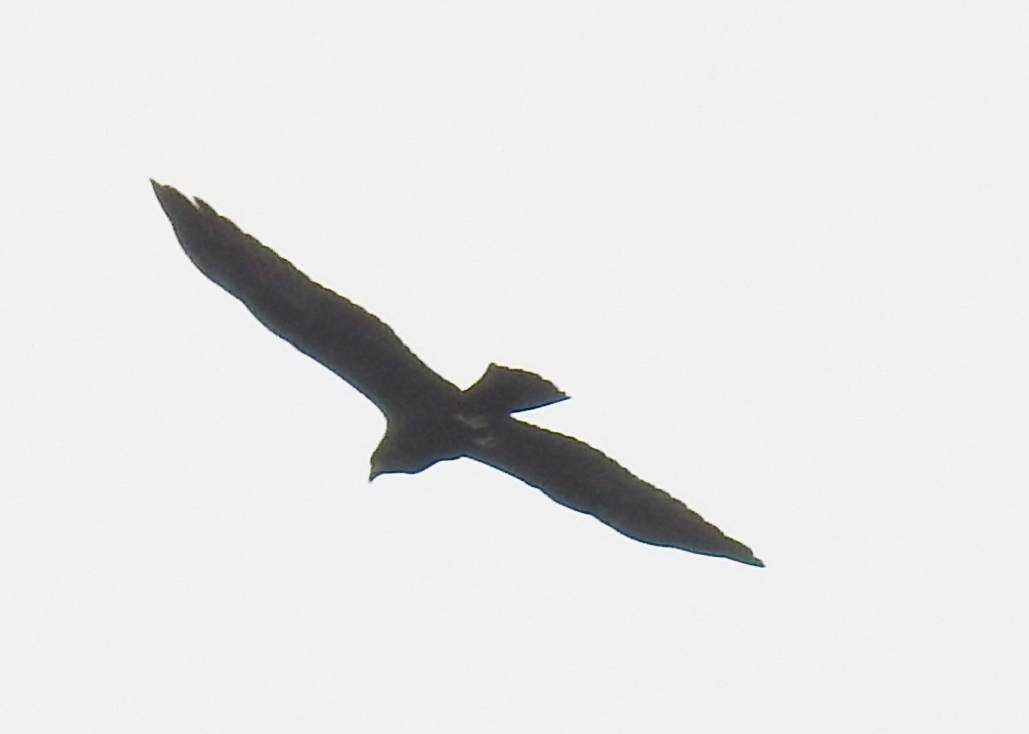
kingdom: Animalia
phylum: Chordata
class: Aves
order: Accipitriformes
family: Accipitridae
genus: Circus
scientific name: Circus aeruginosus
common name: Western marsh harrier
